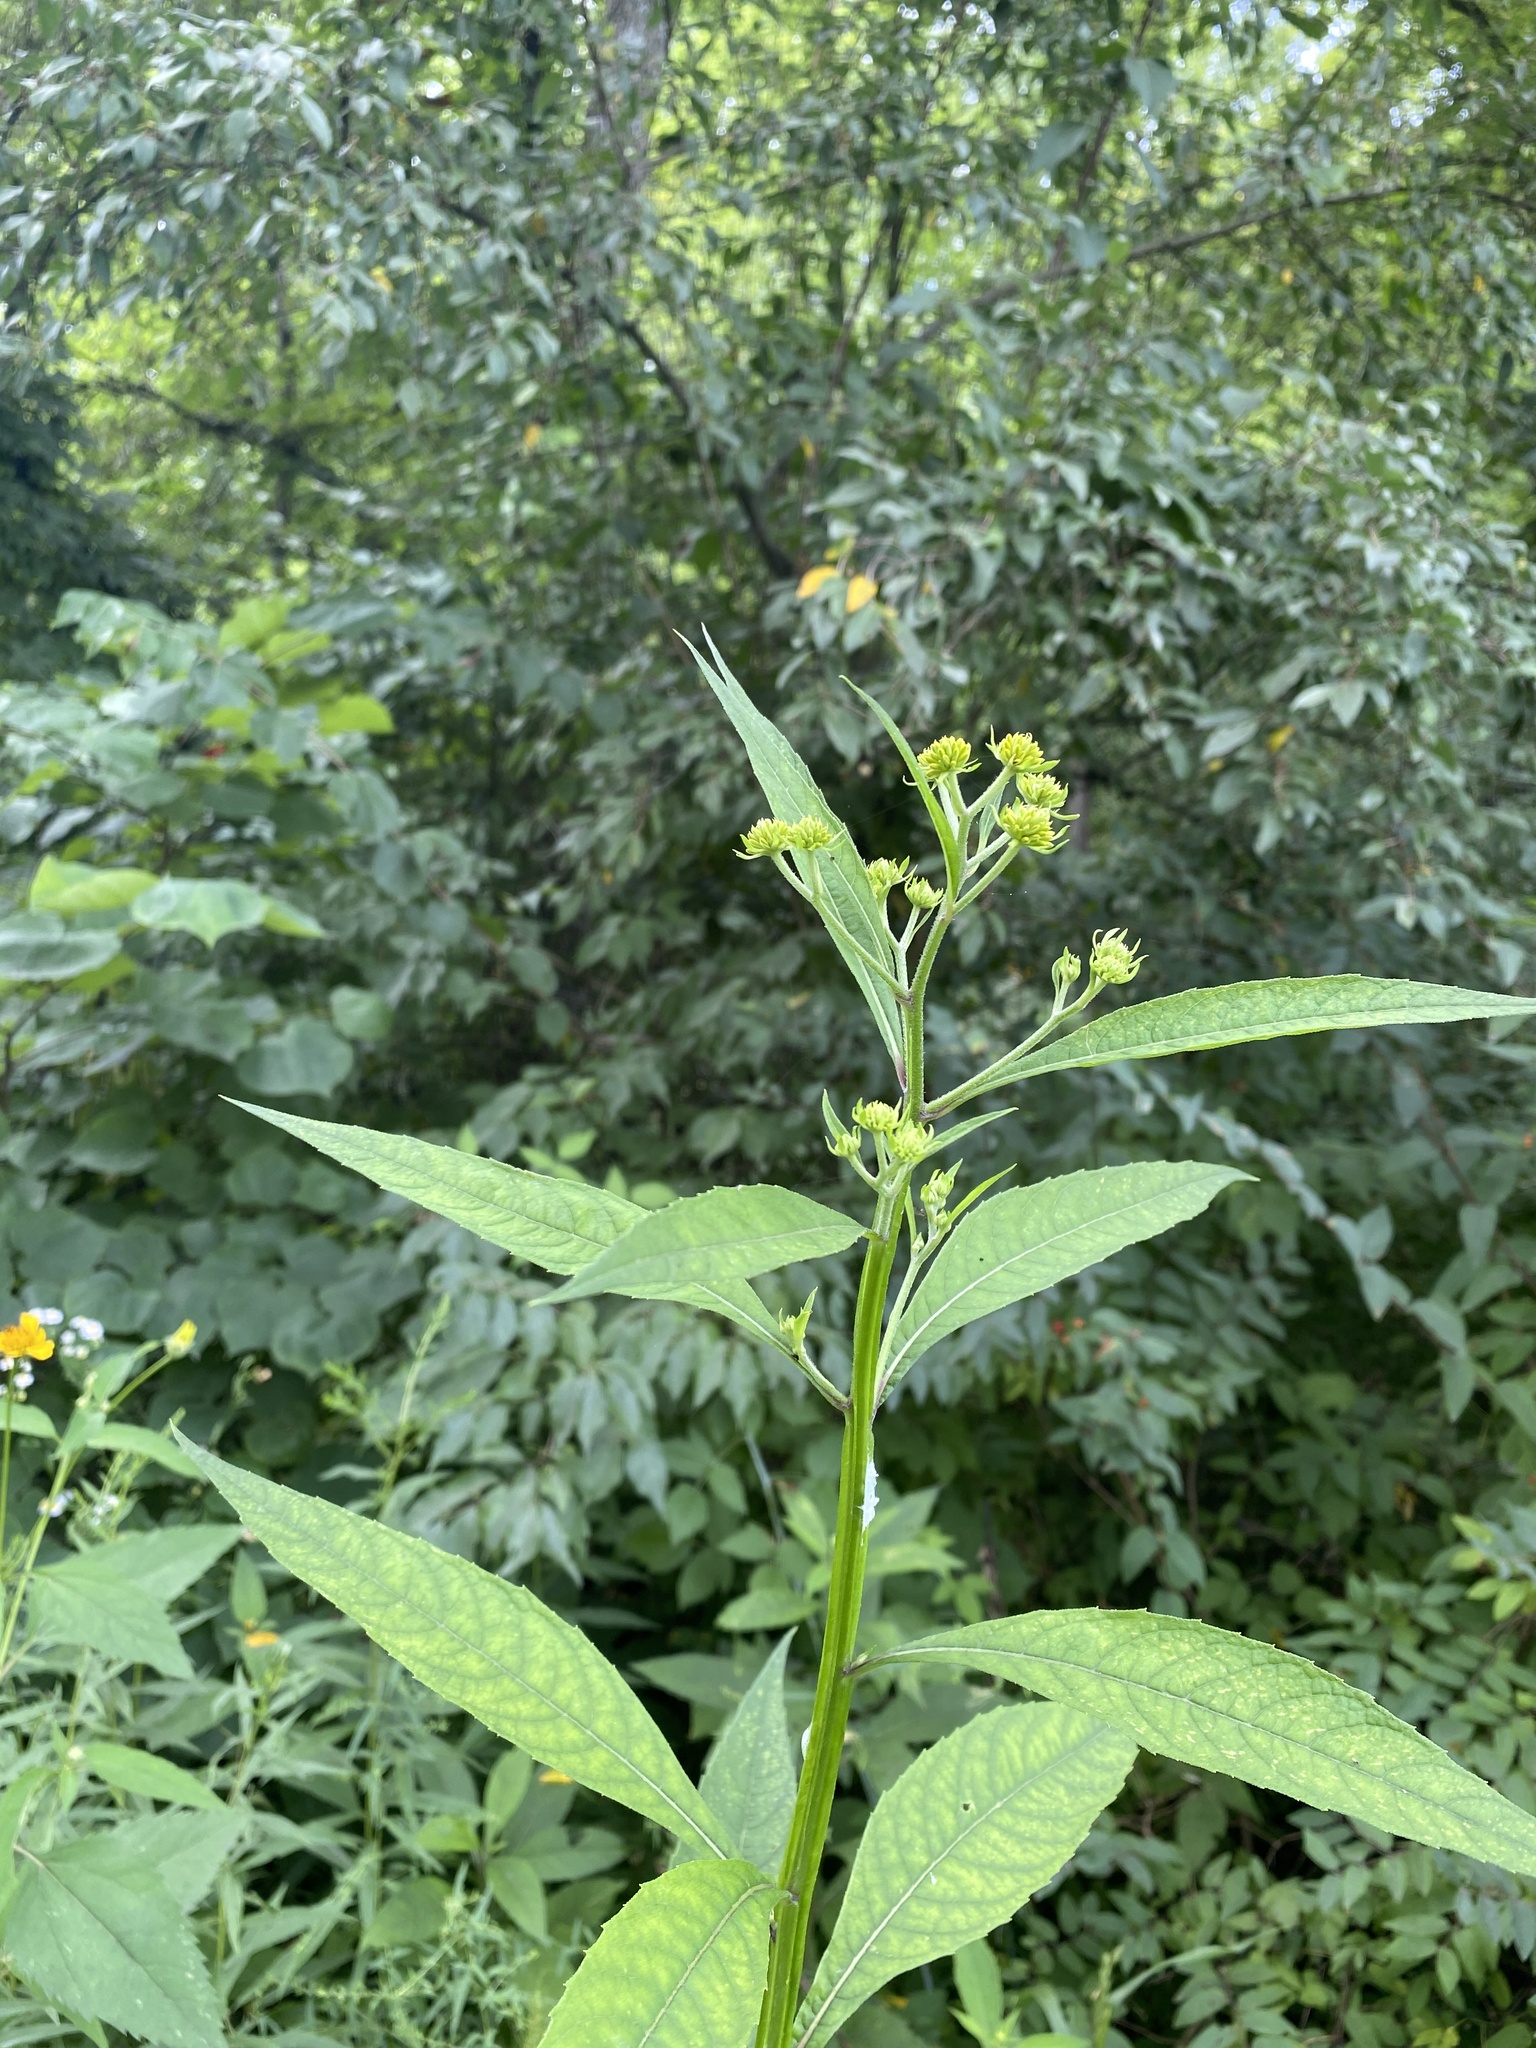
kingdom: Plantae
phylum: Tracheophyta
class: Magnoliopsida
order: Asterales
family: Asteraceae
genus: Verbesina
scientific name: Verbesina alternifolia
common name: Wingstem
